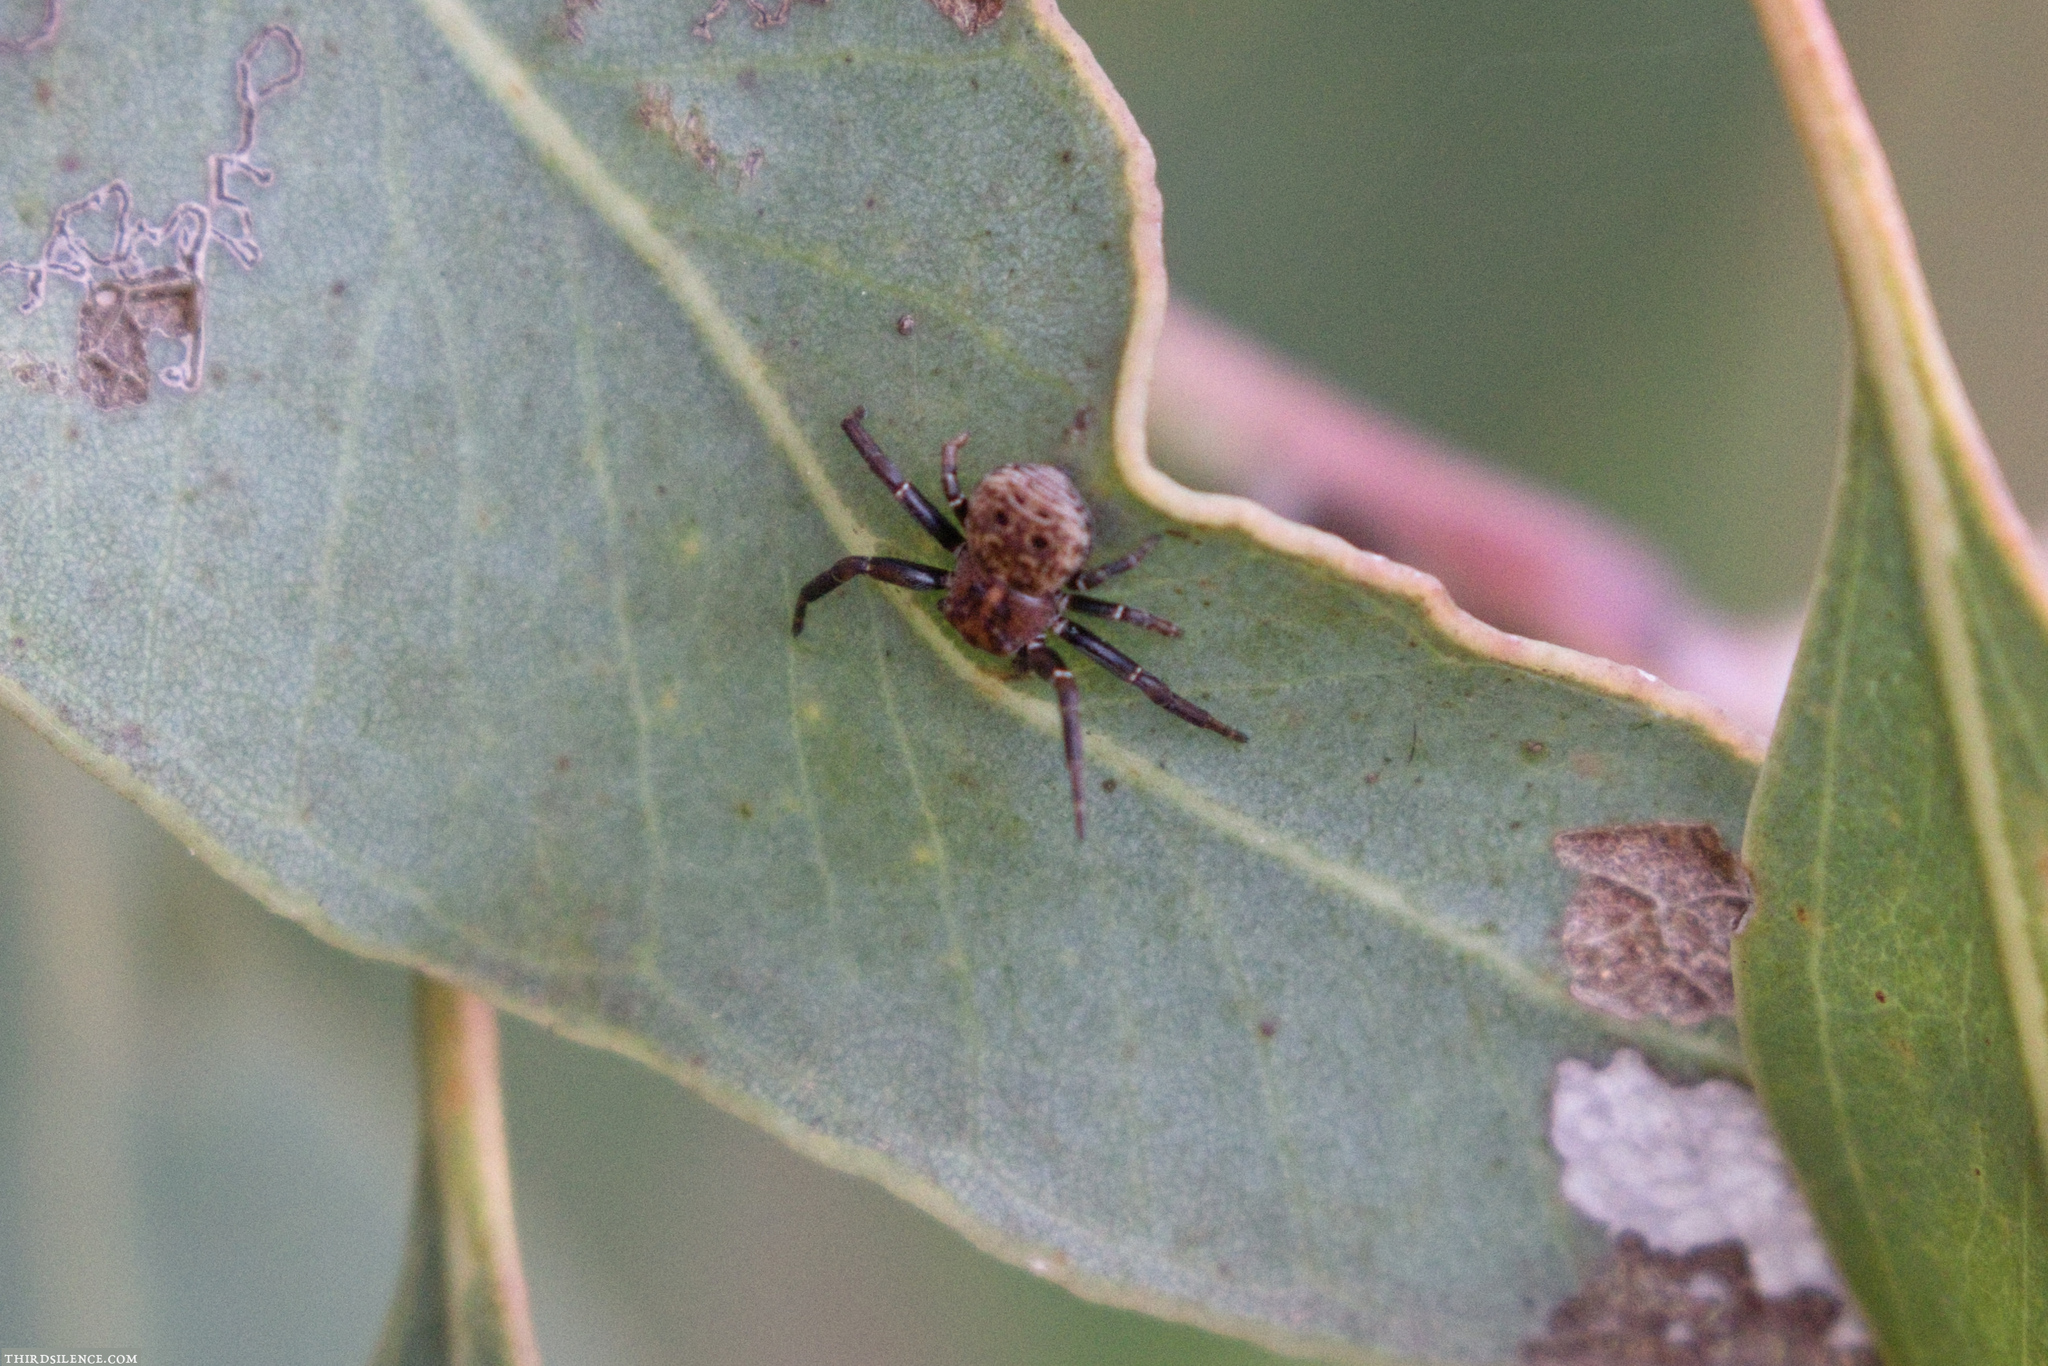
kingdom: Animalia
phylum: Arthropoda
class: Arachnida
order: Araneae
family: Thomisidae
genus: Cymbacha
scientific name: Cymbacha ocellata
